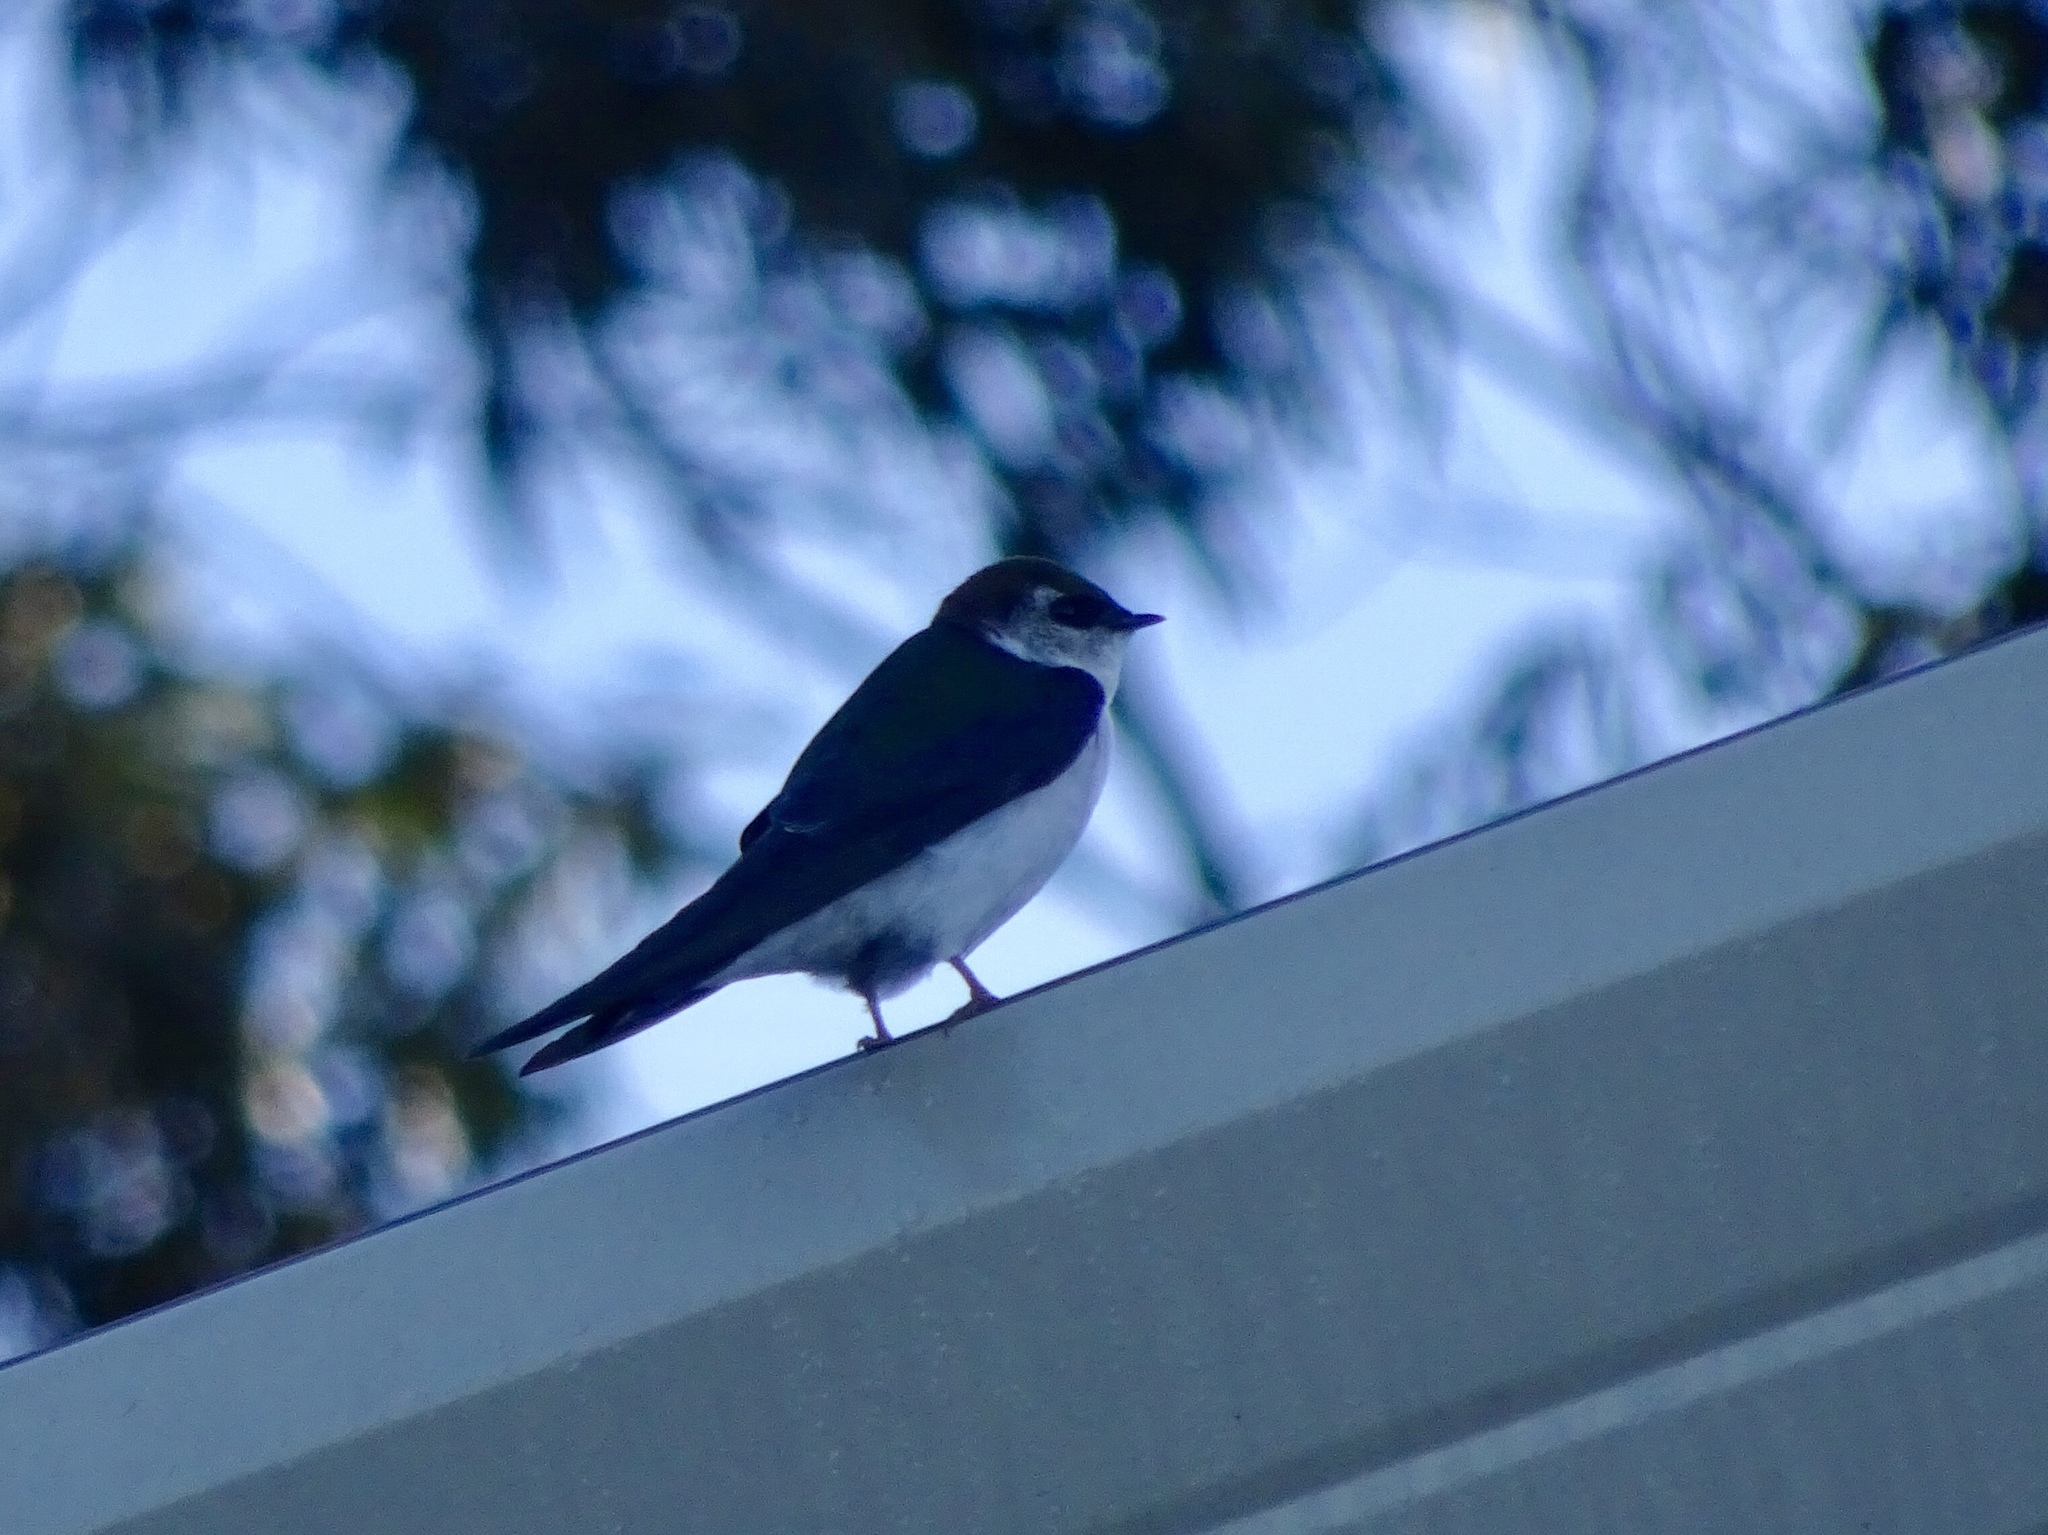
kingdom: Animalia
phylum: Chordata
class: Aves
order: Passeriformes
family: Hirundinidae
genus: Tachycineta
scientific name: Tachycineta thalassina
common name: Violet-green swallow
